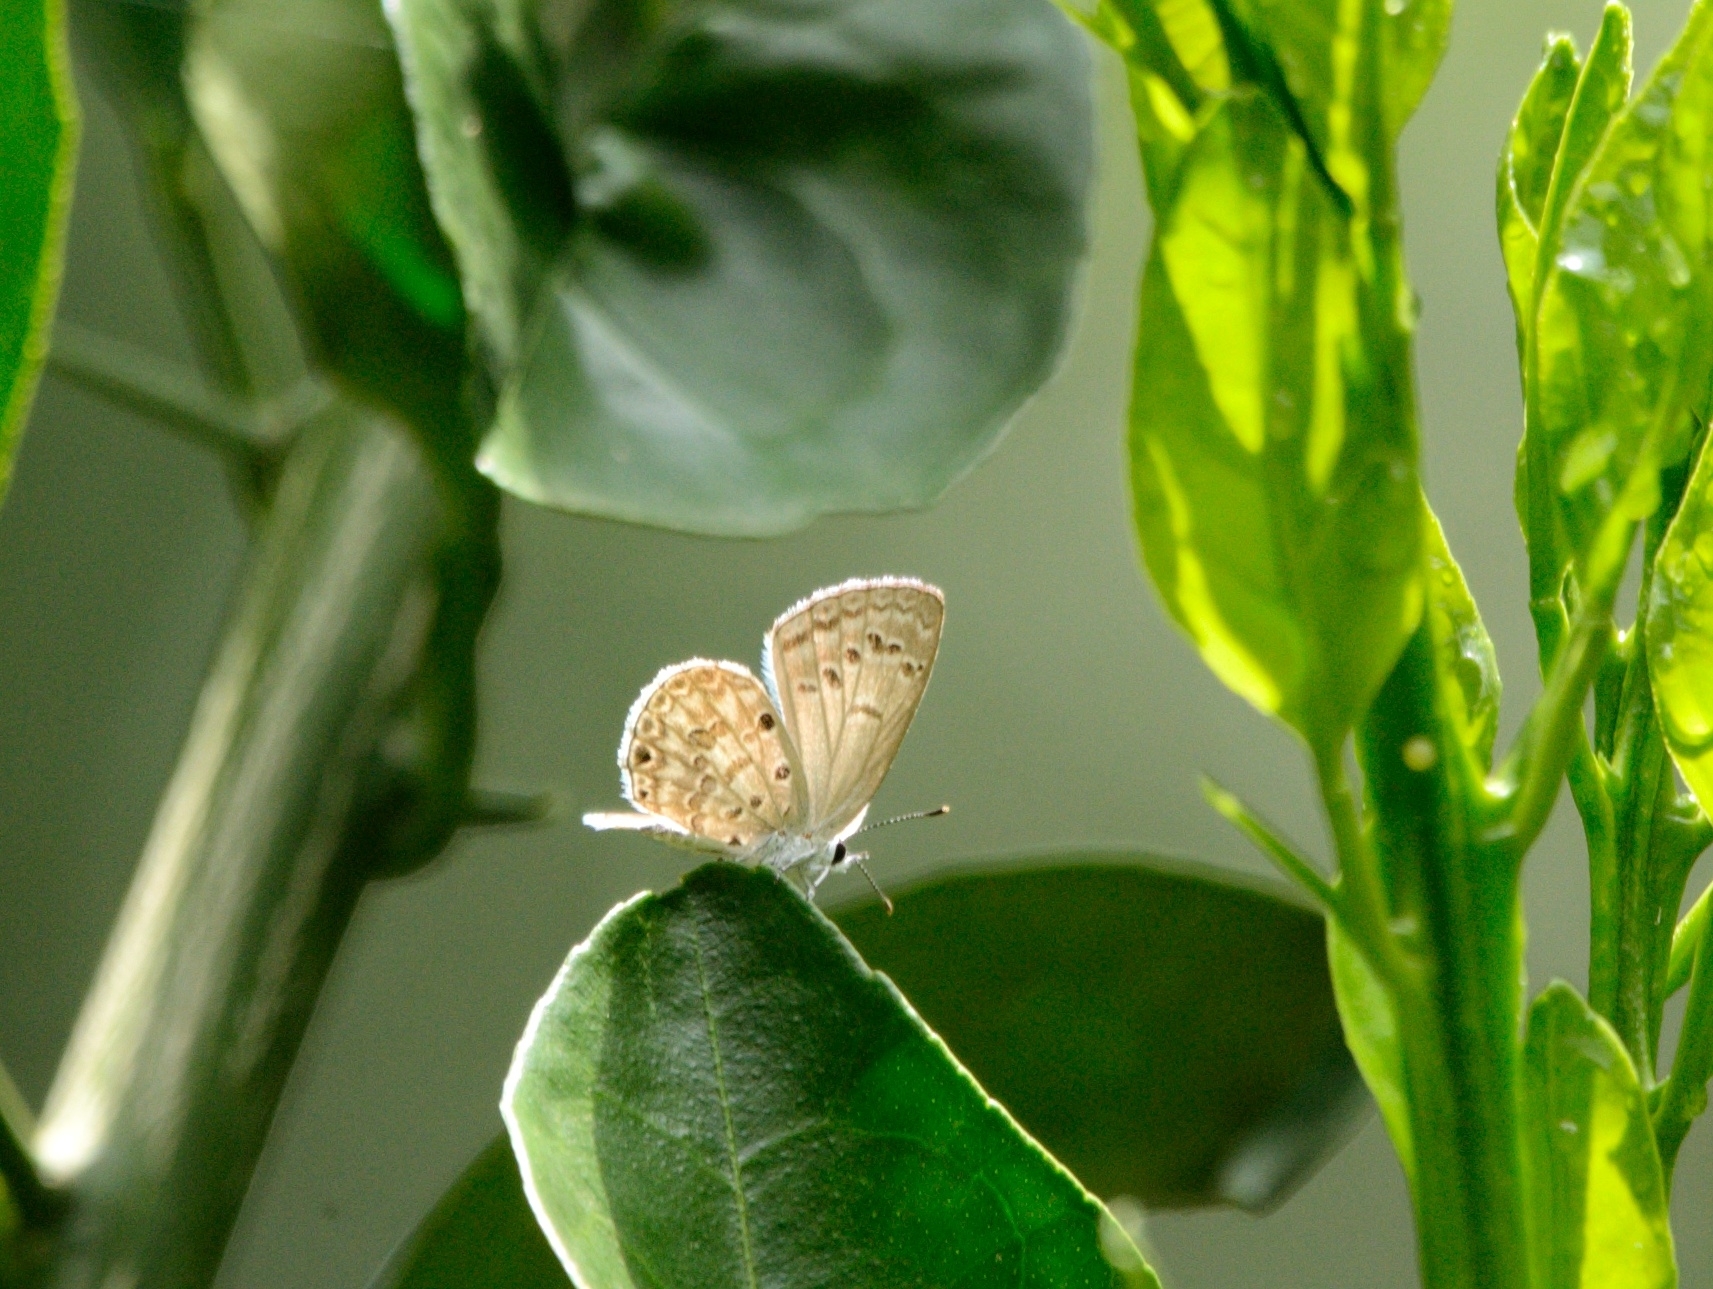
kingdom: Animalia
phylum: Arthropoda
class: Insecta
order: Lepidoptera
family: Lycaenidae
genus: Chilades
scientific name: Chilades laius
